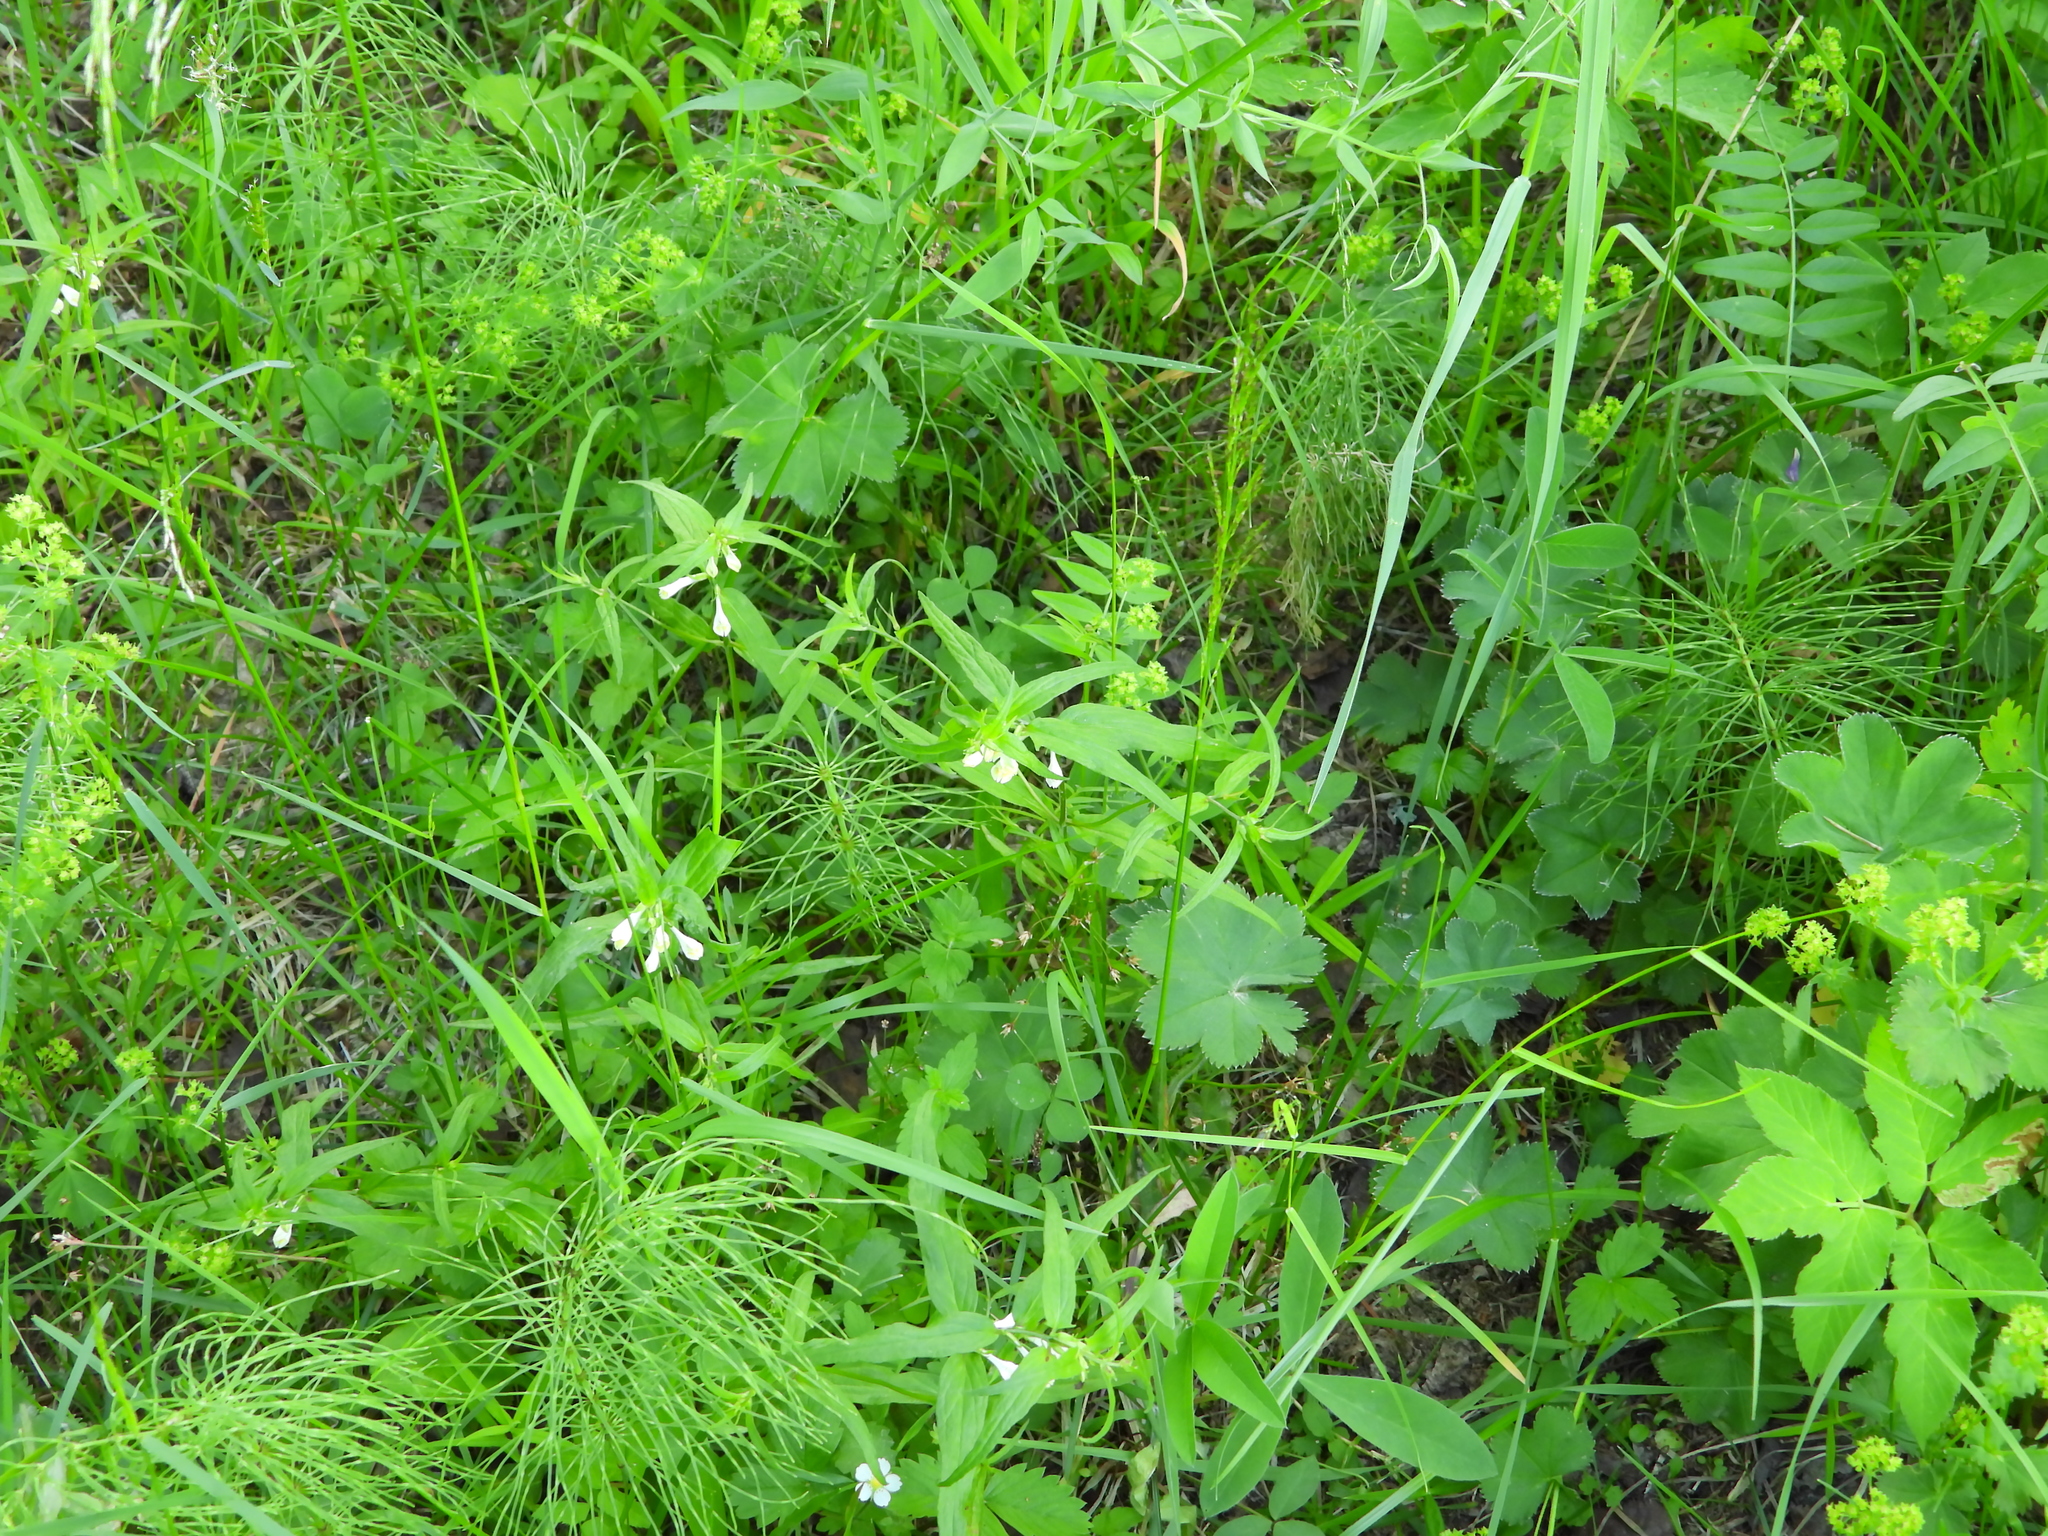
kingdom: Plantae
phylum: Tracheophyta
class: Magnoliopsida
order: Lamiales
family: Orobanchaceae
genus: Melampyrum
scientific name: Melampyrum pratense
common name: Common cow-wheat
